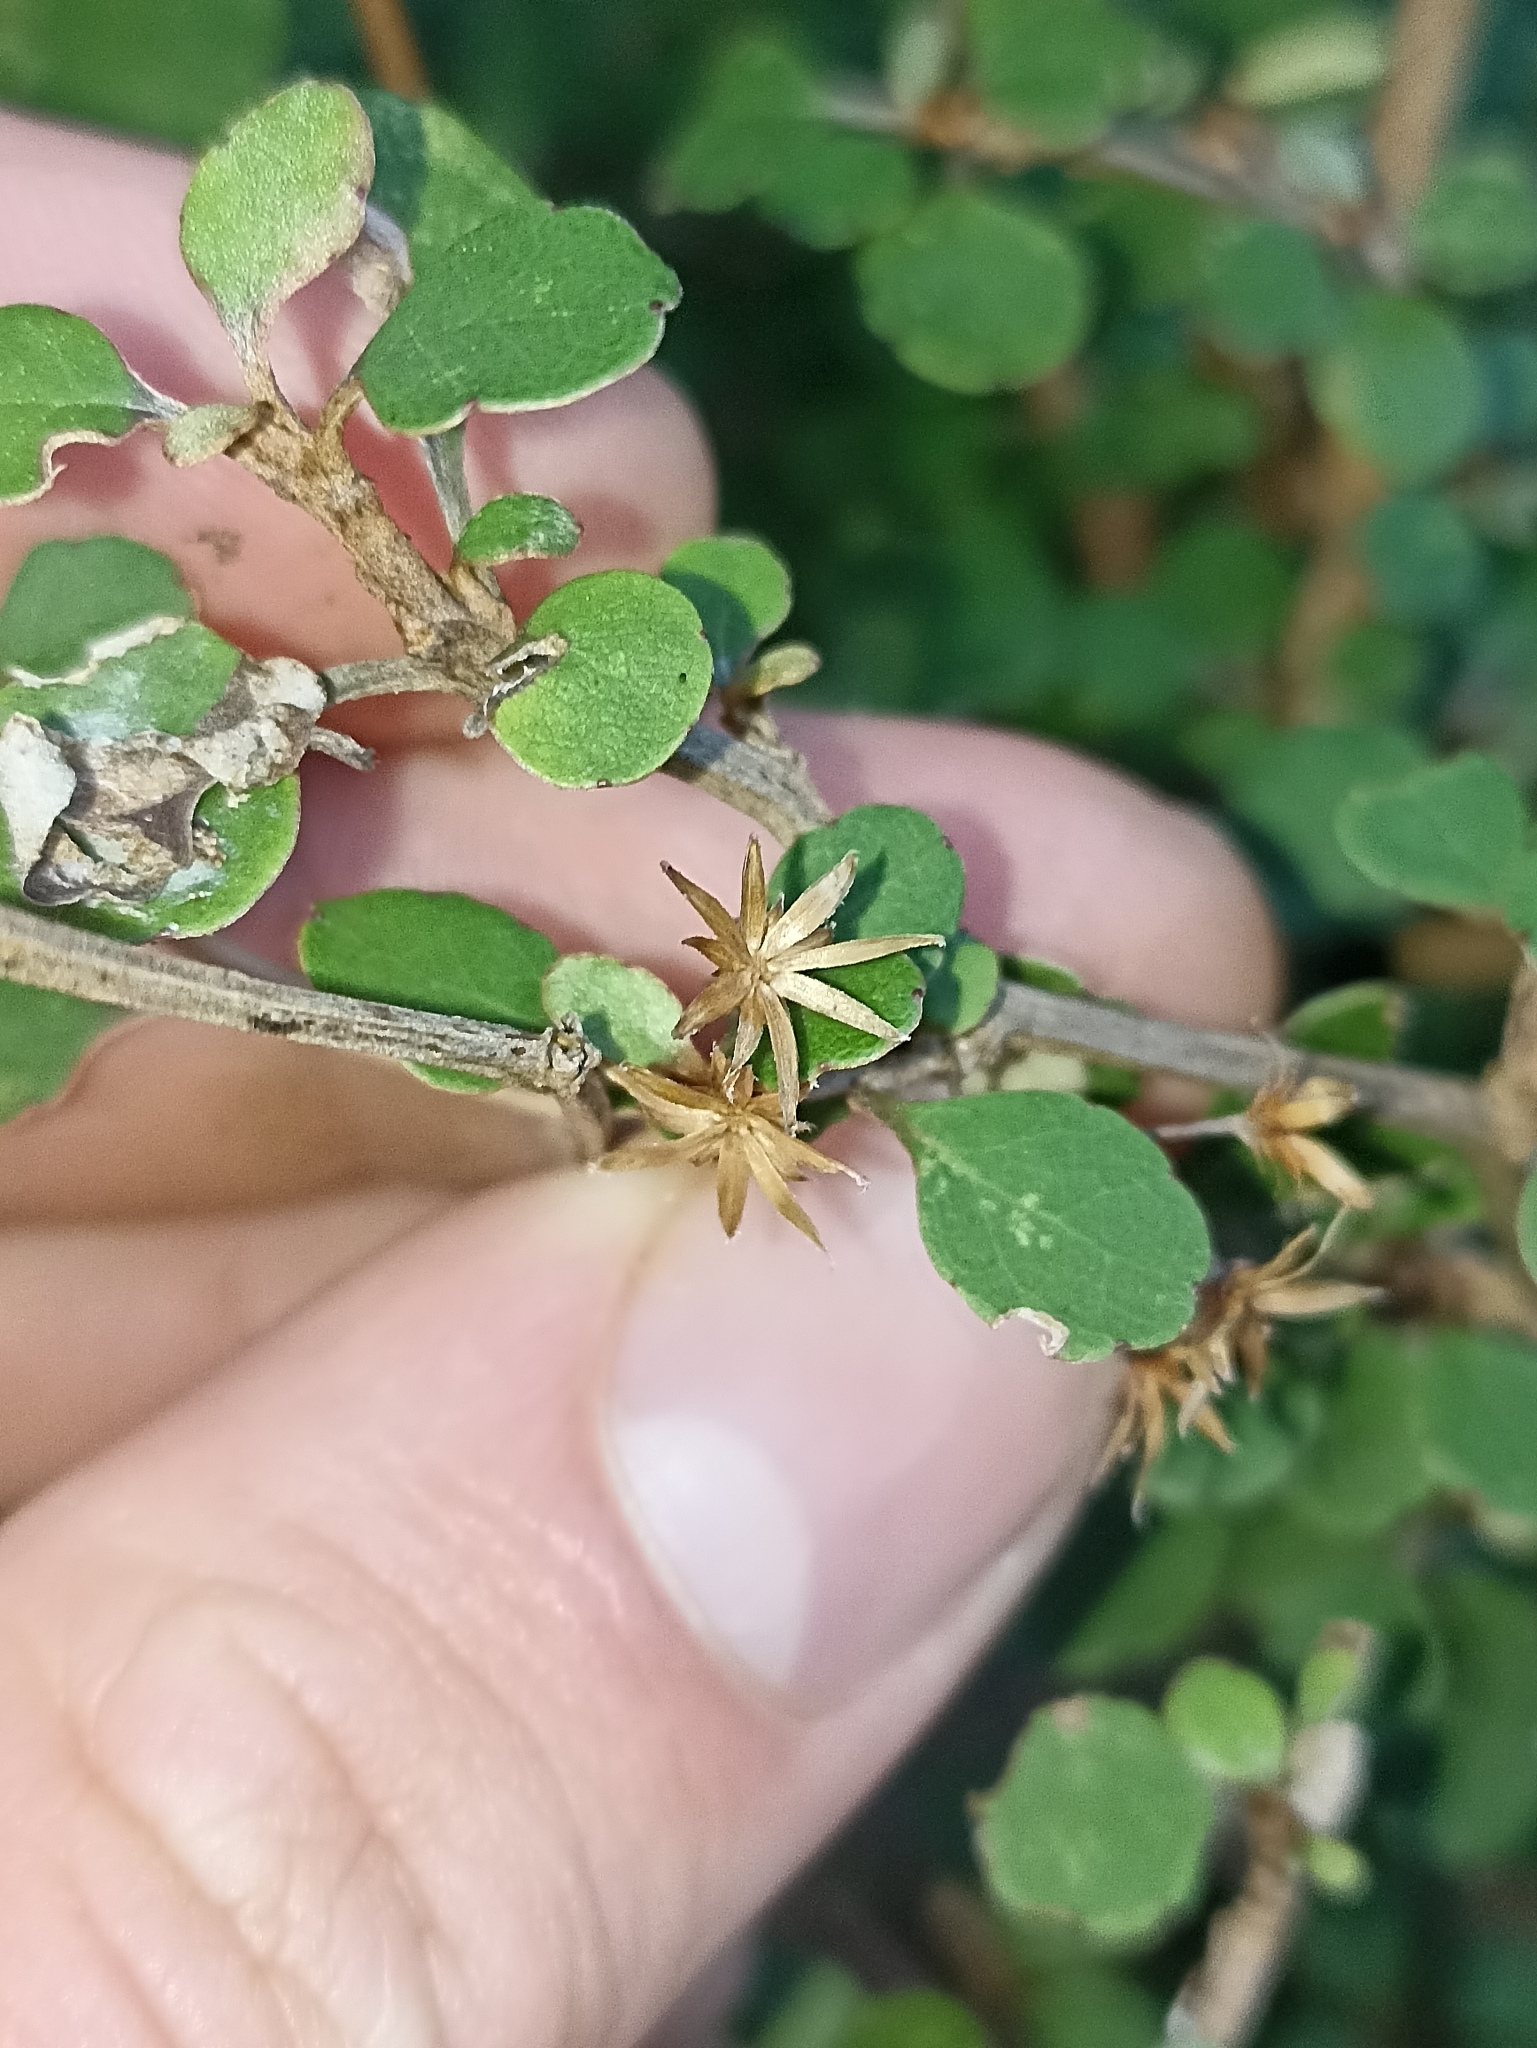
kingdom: Plantae
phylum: Tracheophyta
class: Magnoliopsida
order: Asterales
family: Asteraceae
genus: Olearia
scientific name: Olearia quinquevulnera
